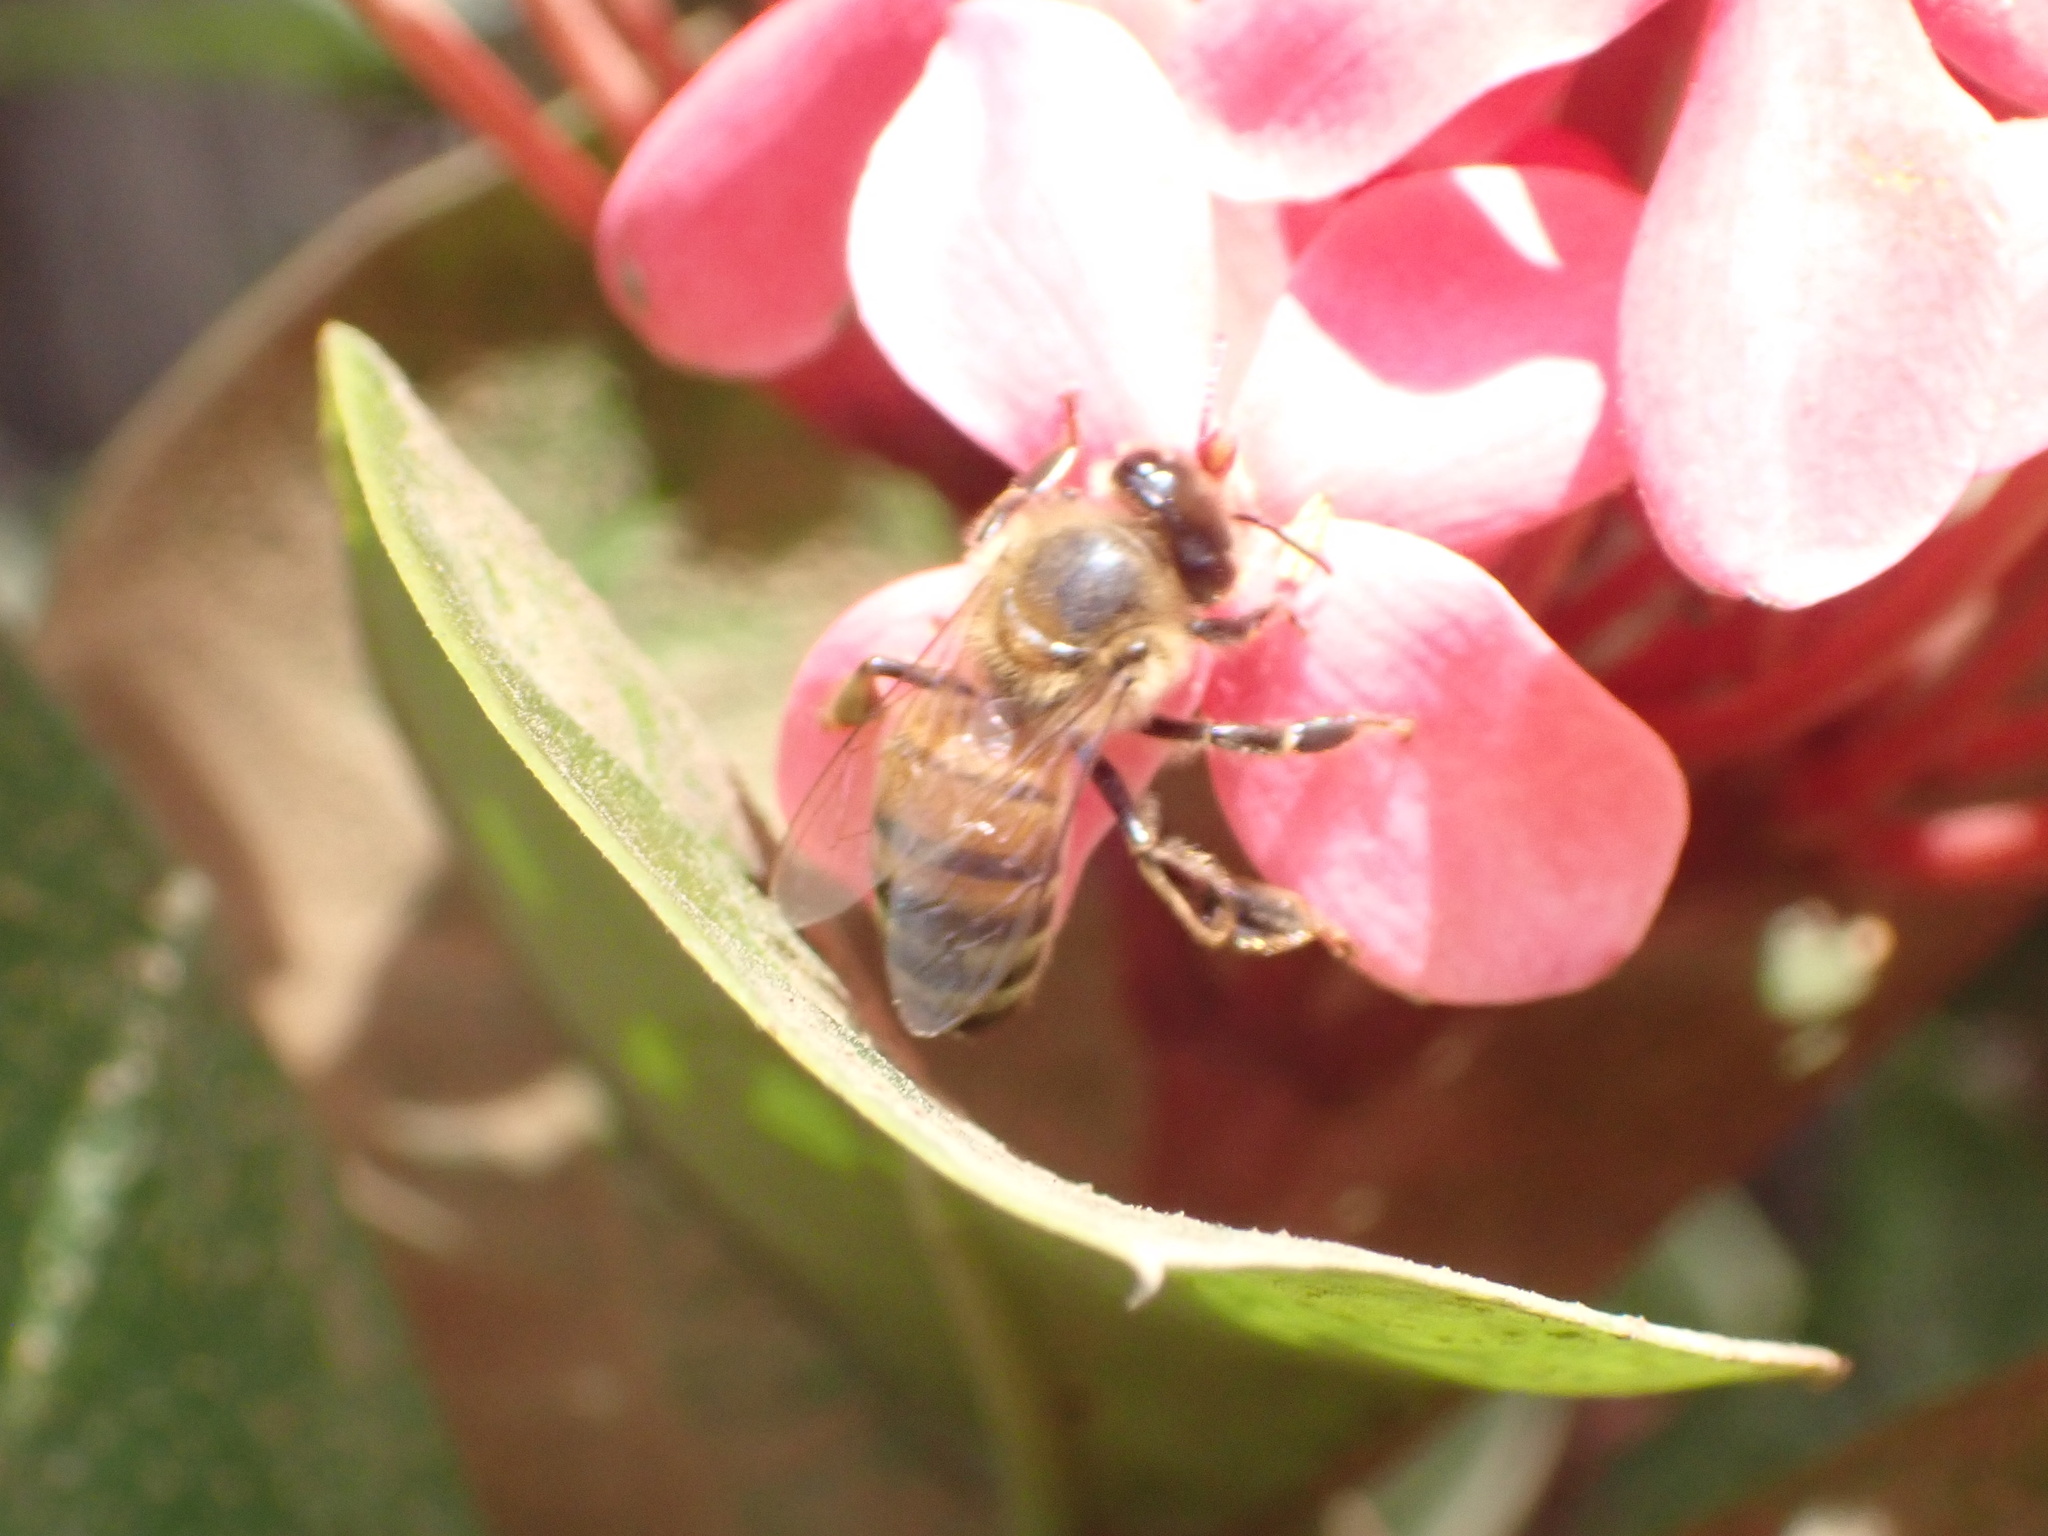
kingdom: Animalia
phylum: Arthropoda
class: Insecta
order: Hymenoptera
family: Apidae
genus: Apis
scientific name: Apis mellifera
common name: Honey bee
